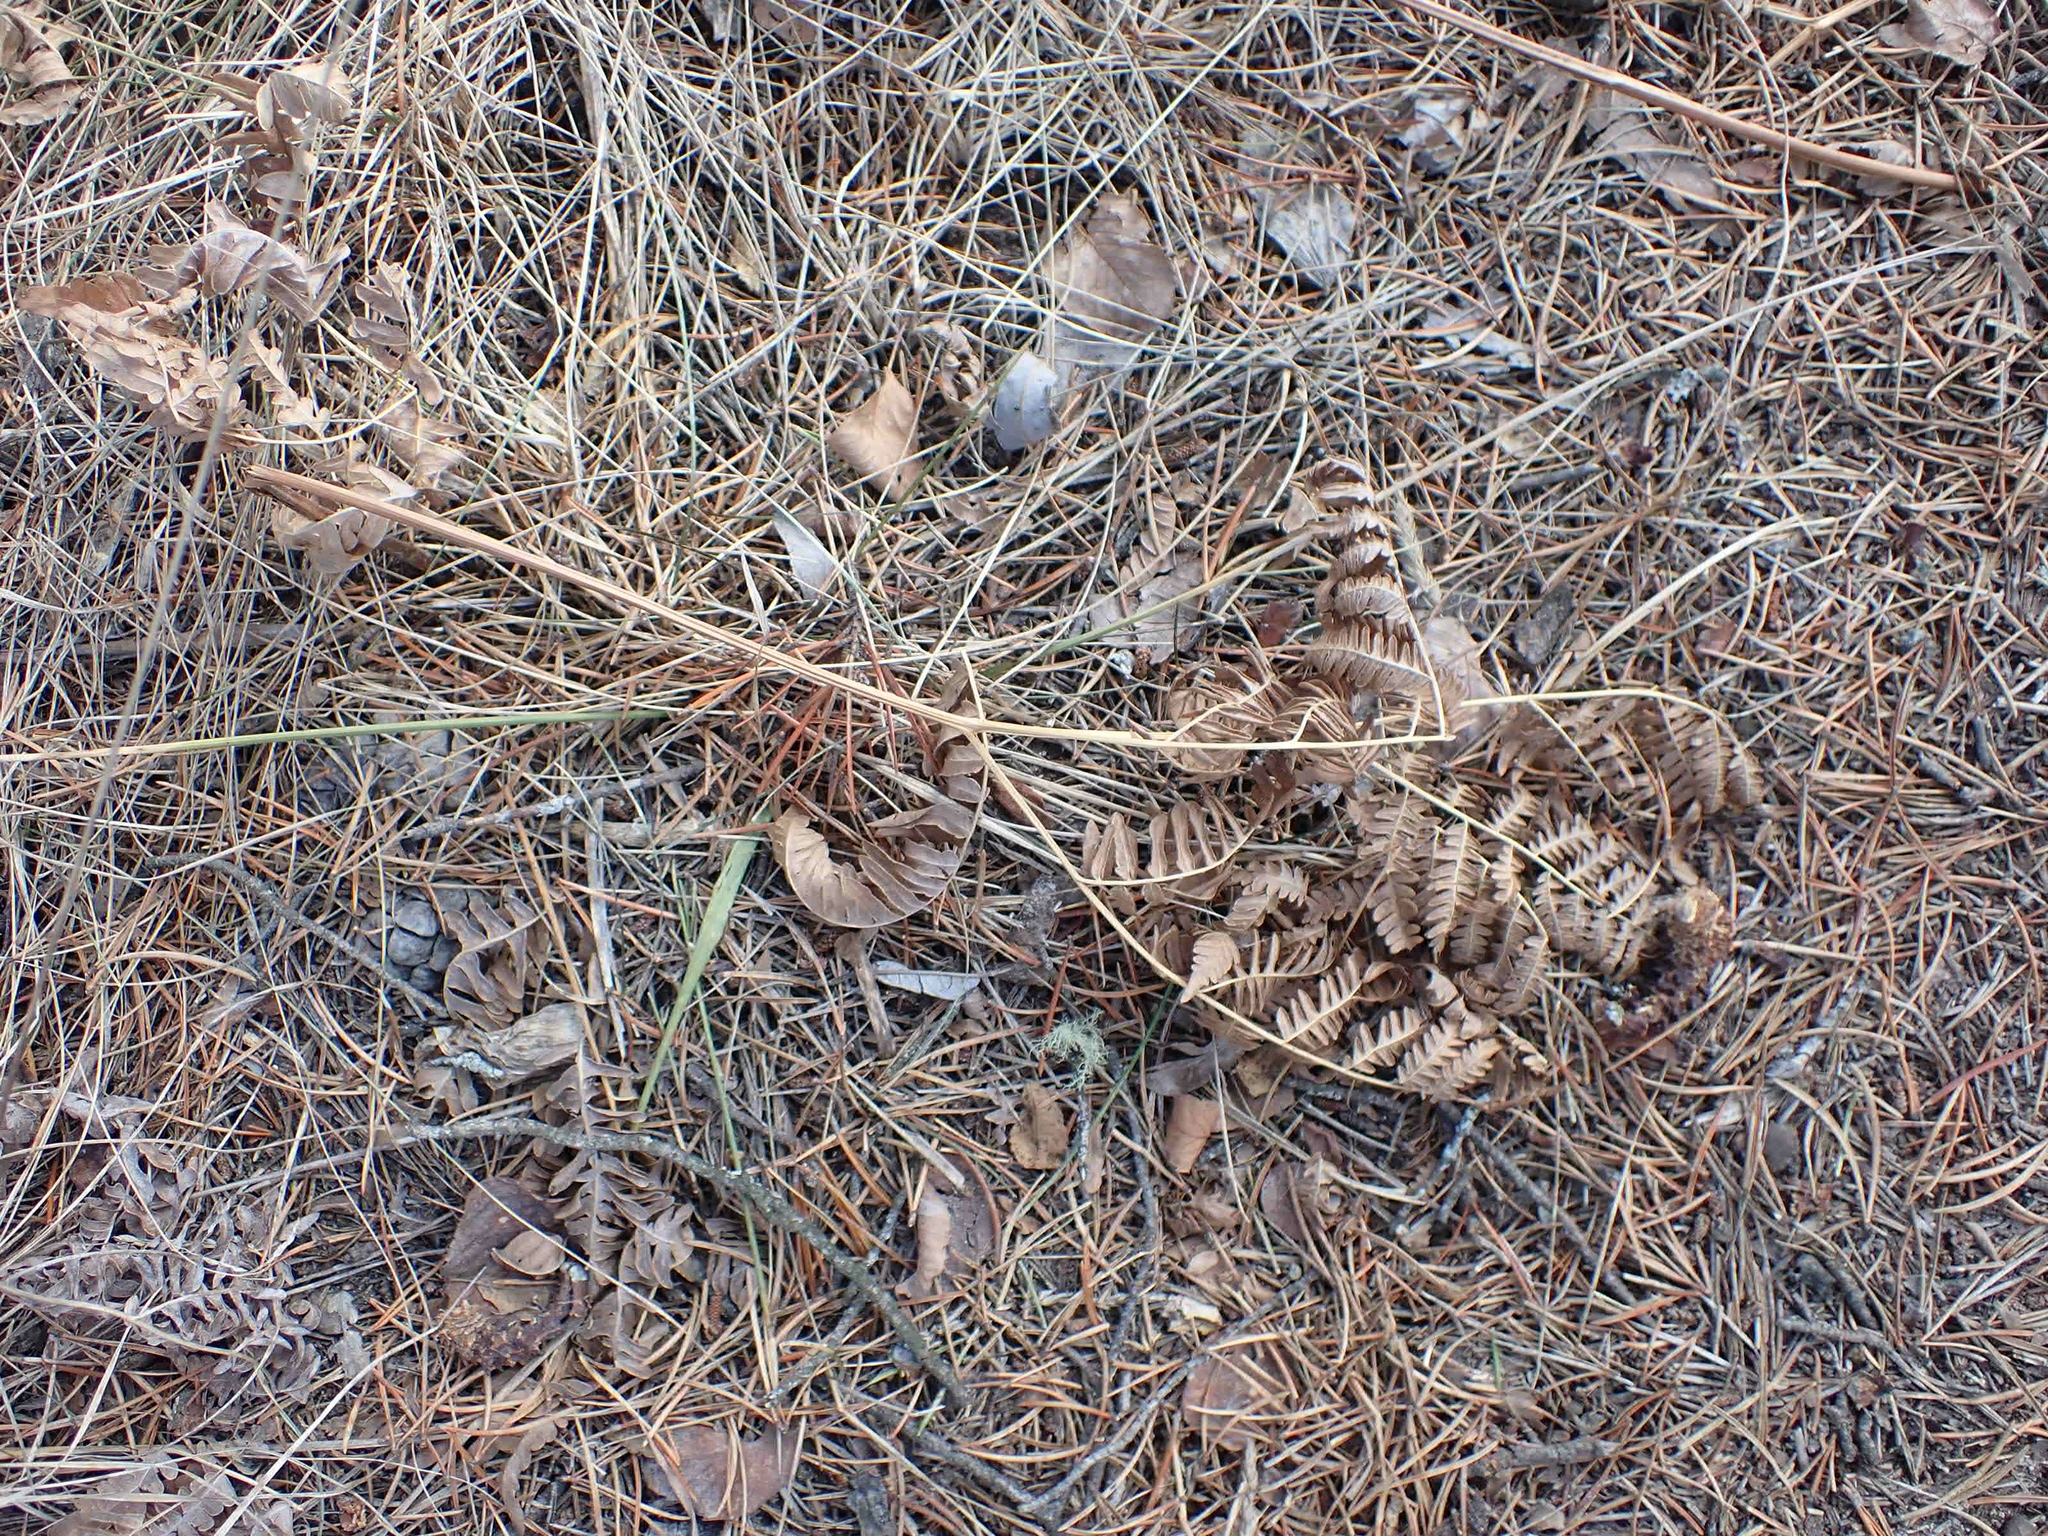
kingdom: Plantae
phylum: Tracheophyta
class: Polypodiopsida
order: Polypodiales
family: Dennstaedtiaceae
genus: Pteridium
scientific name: Pteridium aquilinum
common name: Bracken
